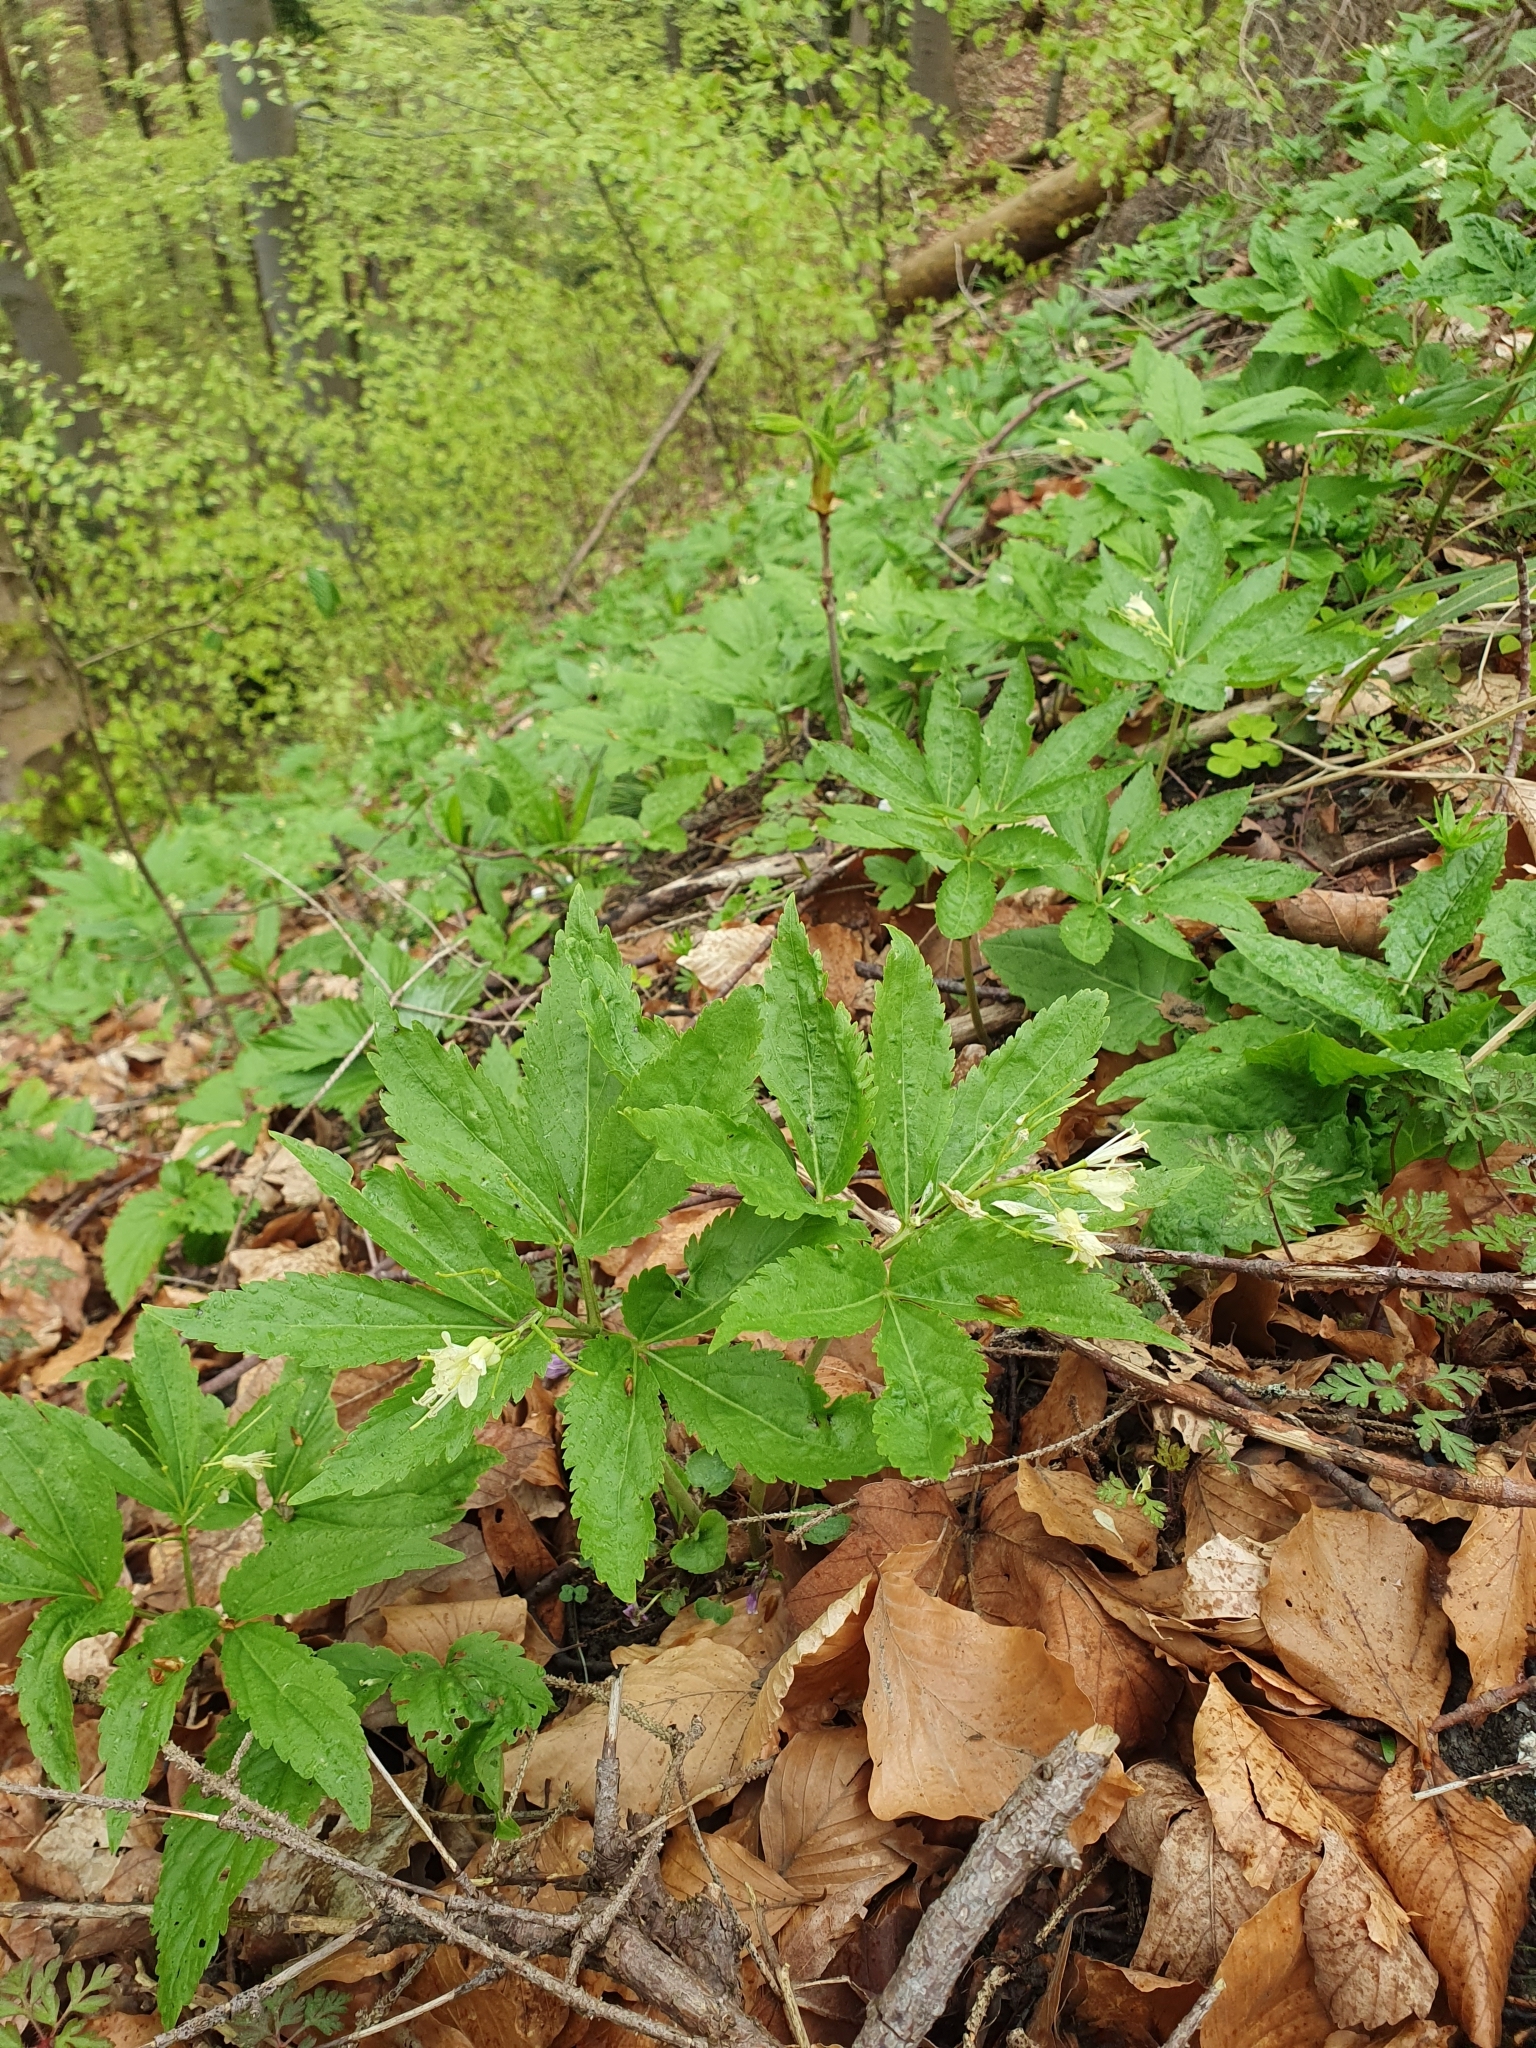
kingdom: Plantae
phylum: Tracheophyta
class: Magnoliopsida
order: Brassicales
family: Brassicaceae
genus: Cardamine
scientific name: Cardamine enneaphyllos
